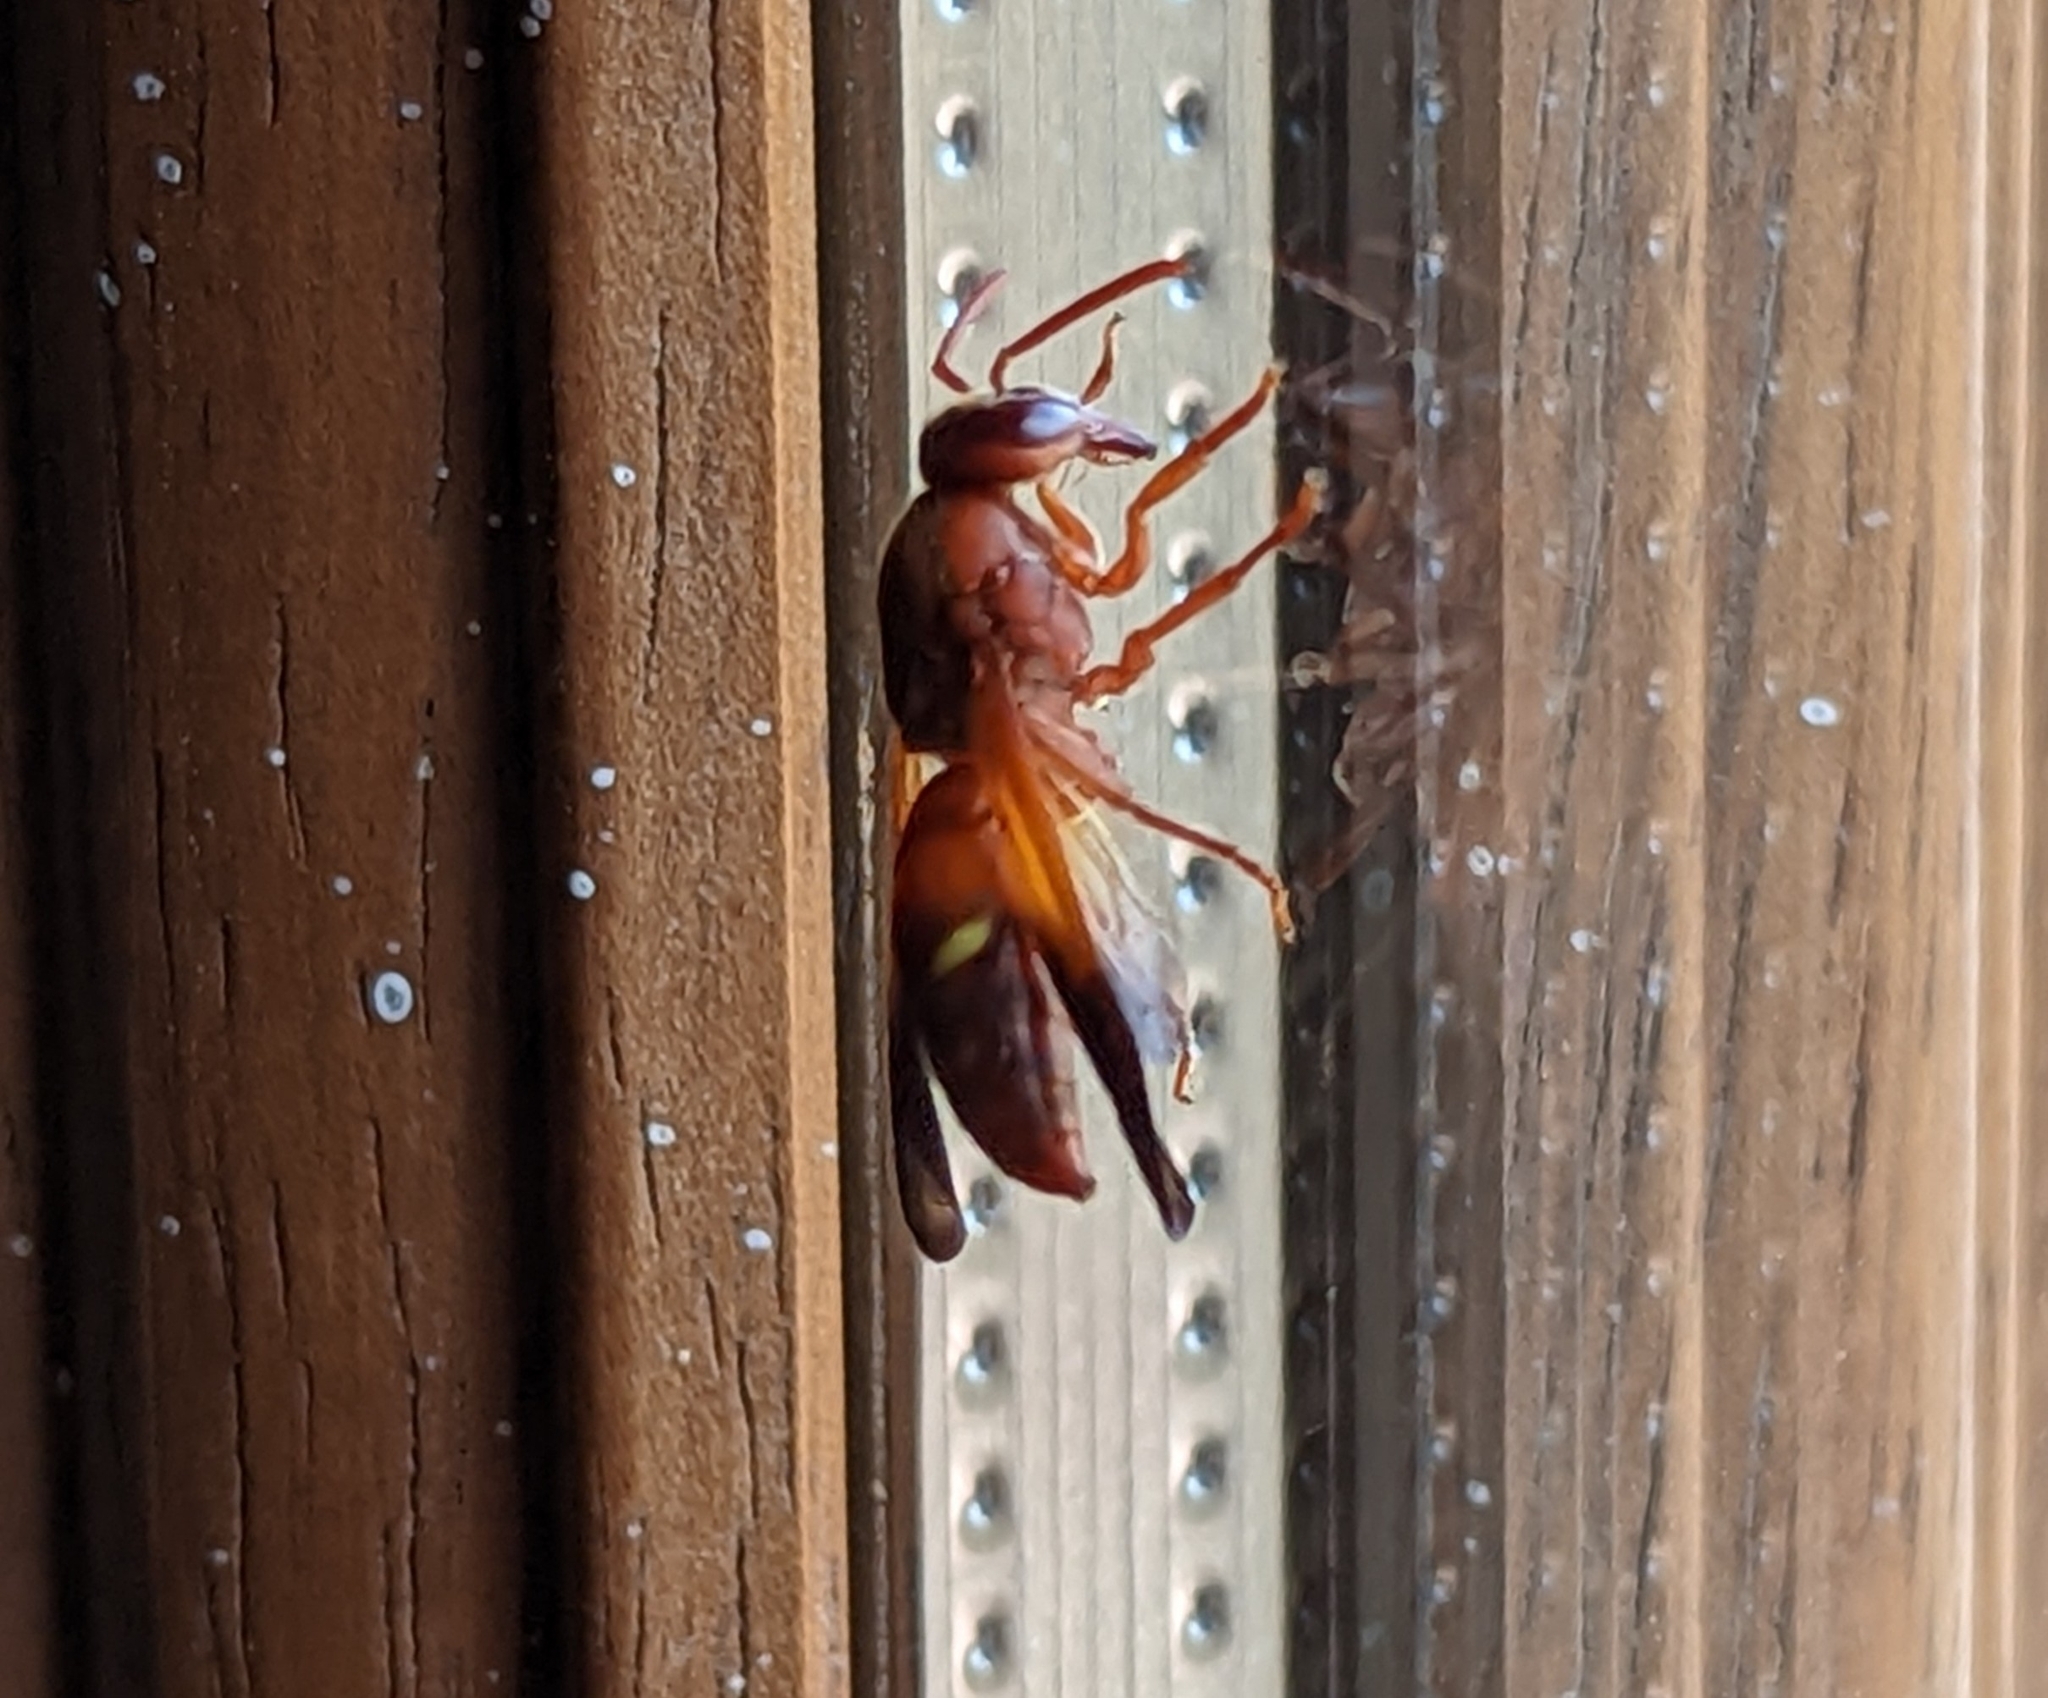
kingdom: Animalia
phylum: Arthropoda
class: Insecta
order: Hymenoptera
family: Eumenidae
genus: Rhynchium
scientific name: Rhynchium oculatum
